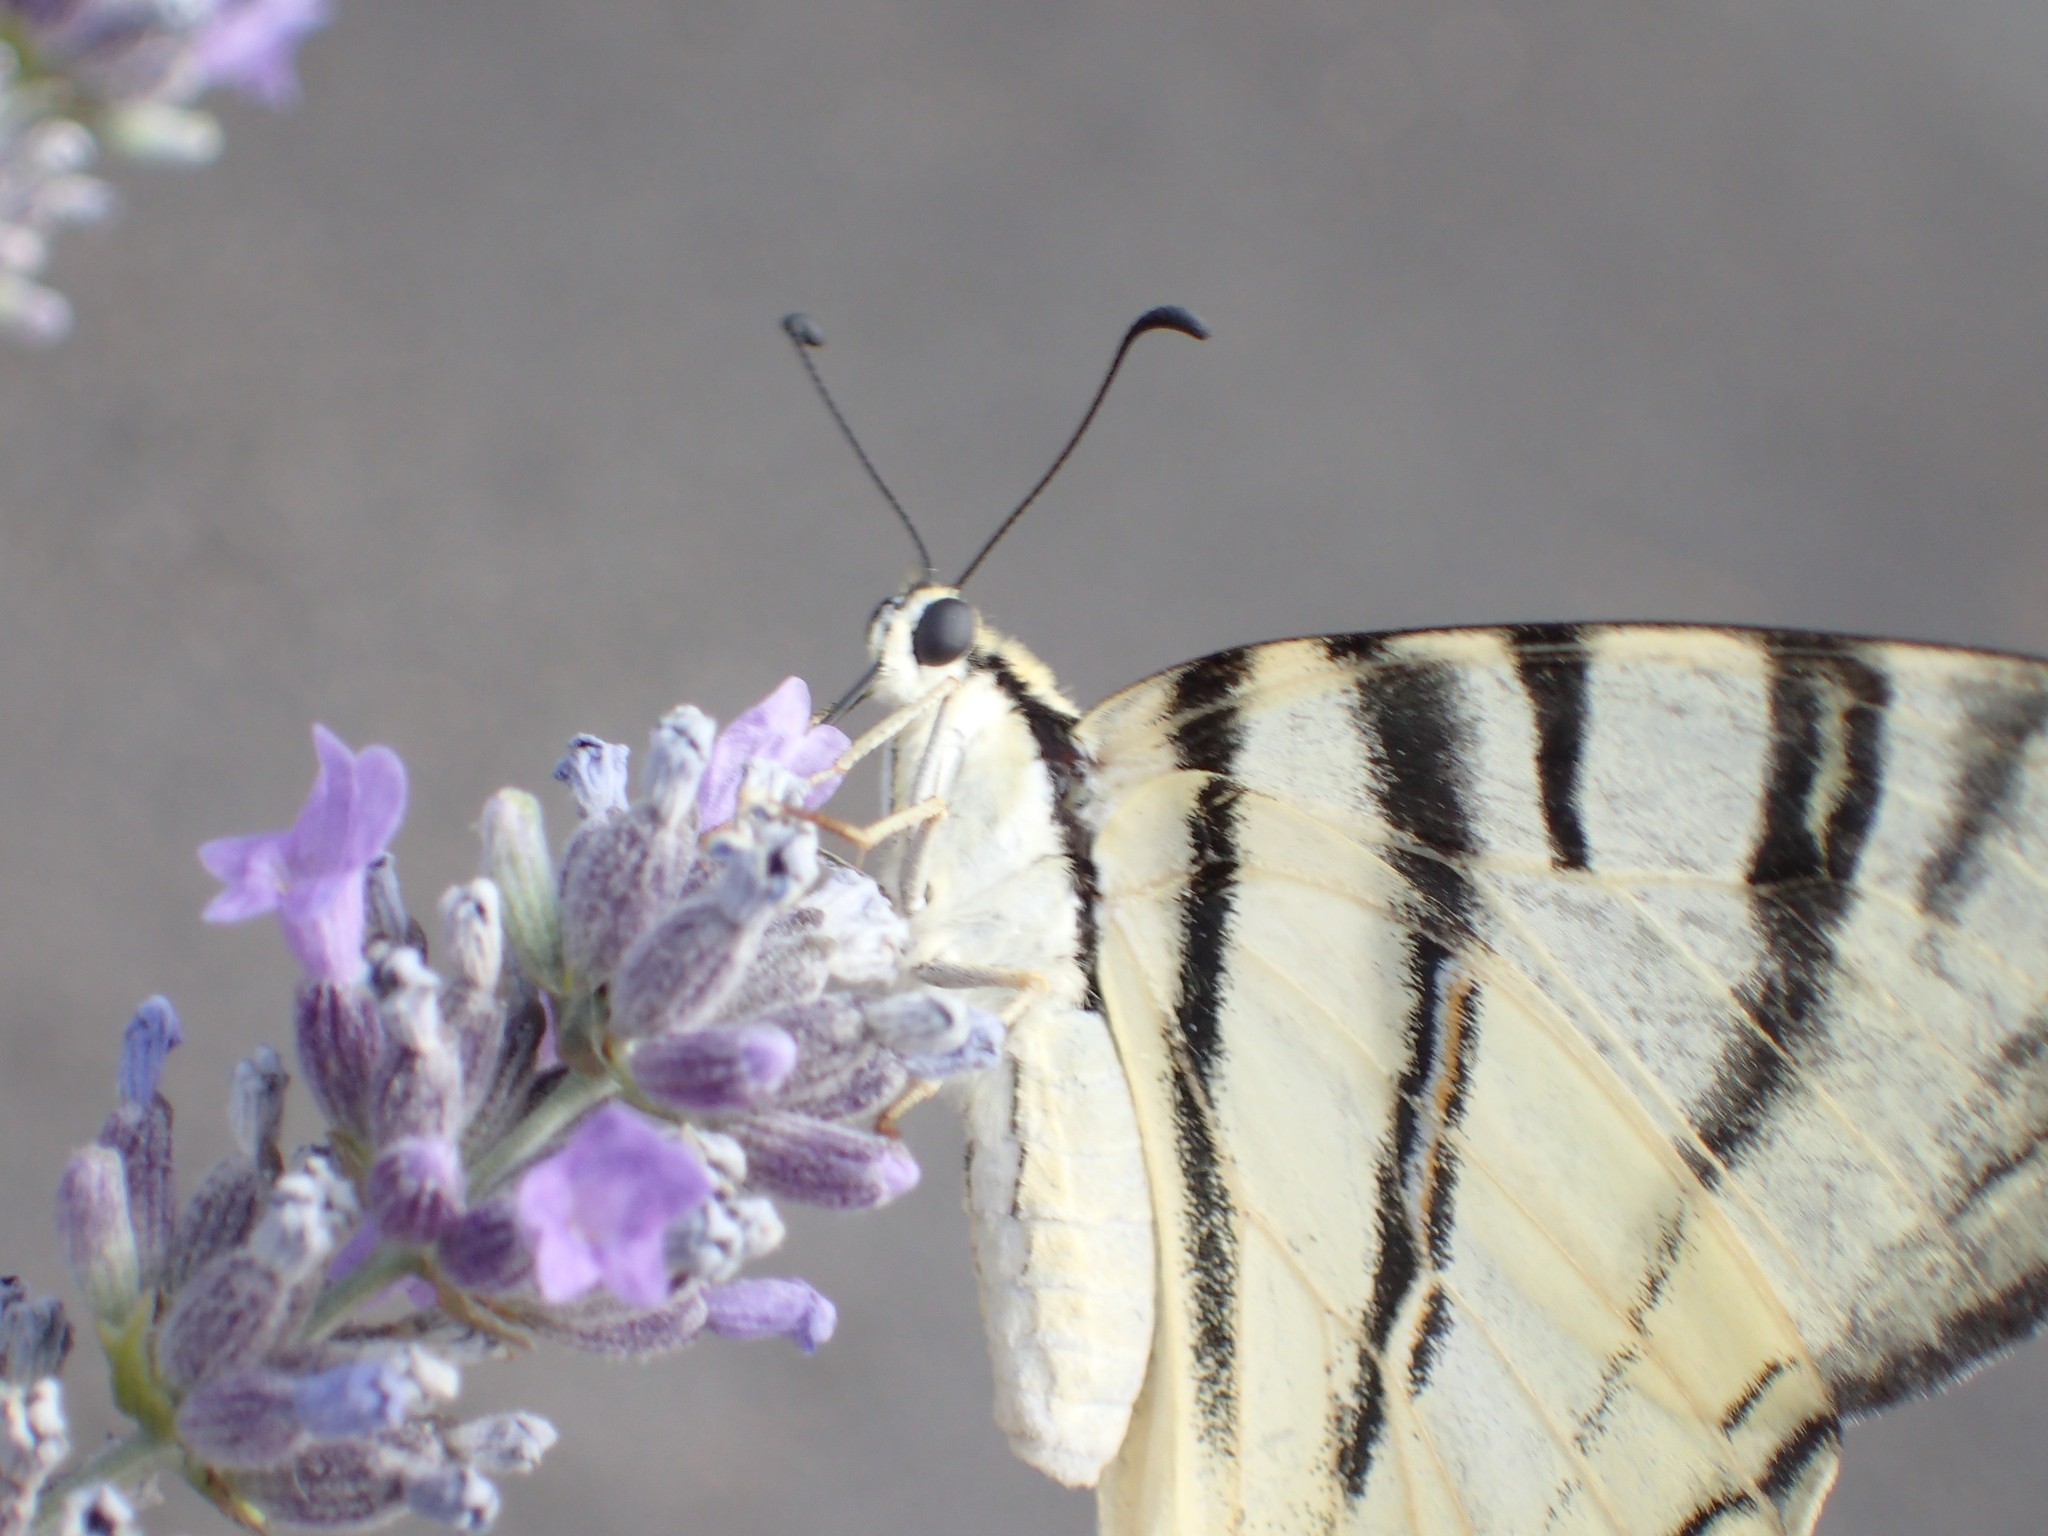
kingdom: Animalia
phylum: Arthropoda
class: Insecta
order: Lepidoptera
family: Papilionidae
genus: Iphiclides
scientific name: Iphiclides podalirius
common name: Scarce swallowtail
